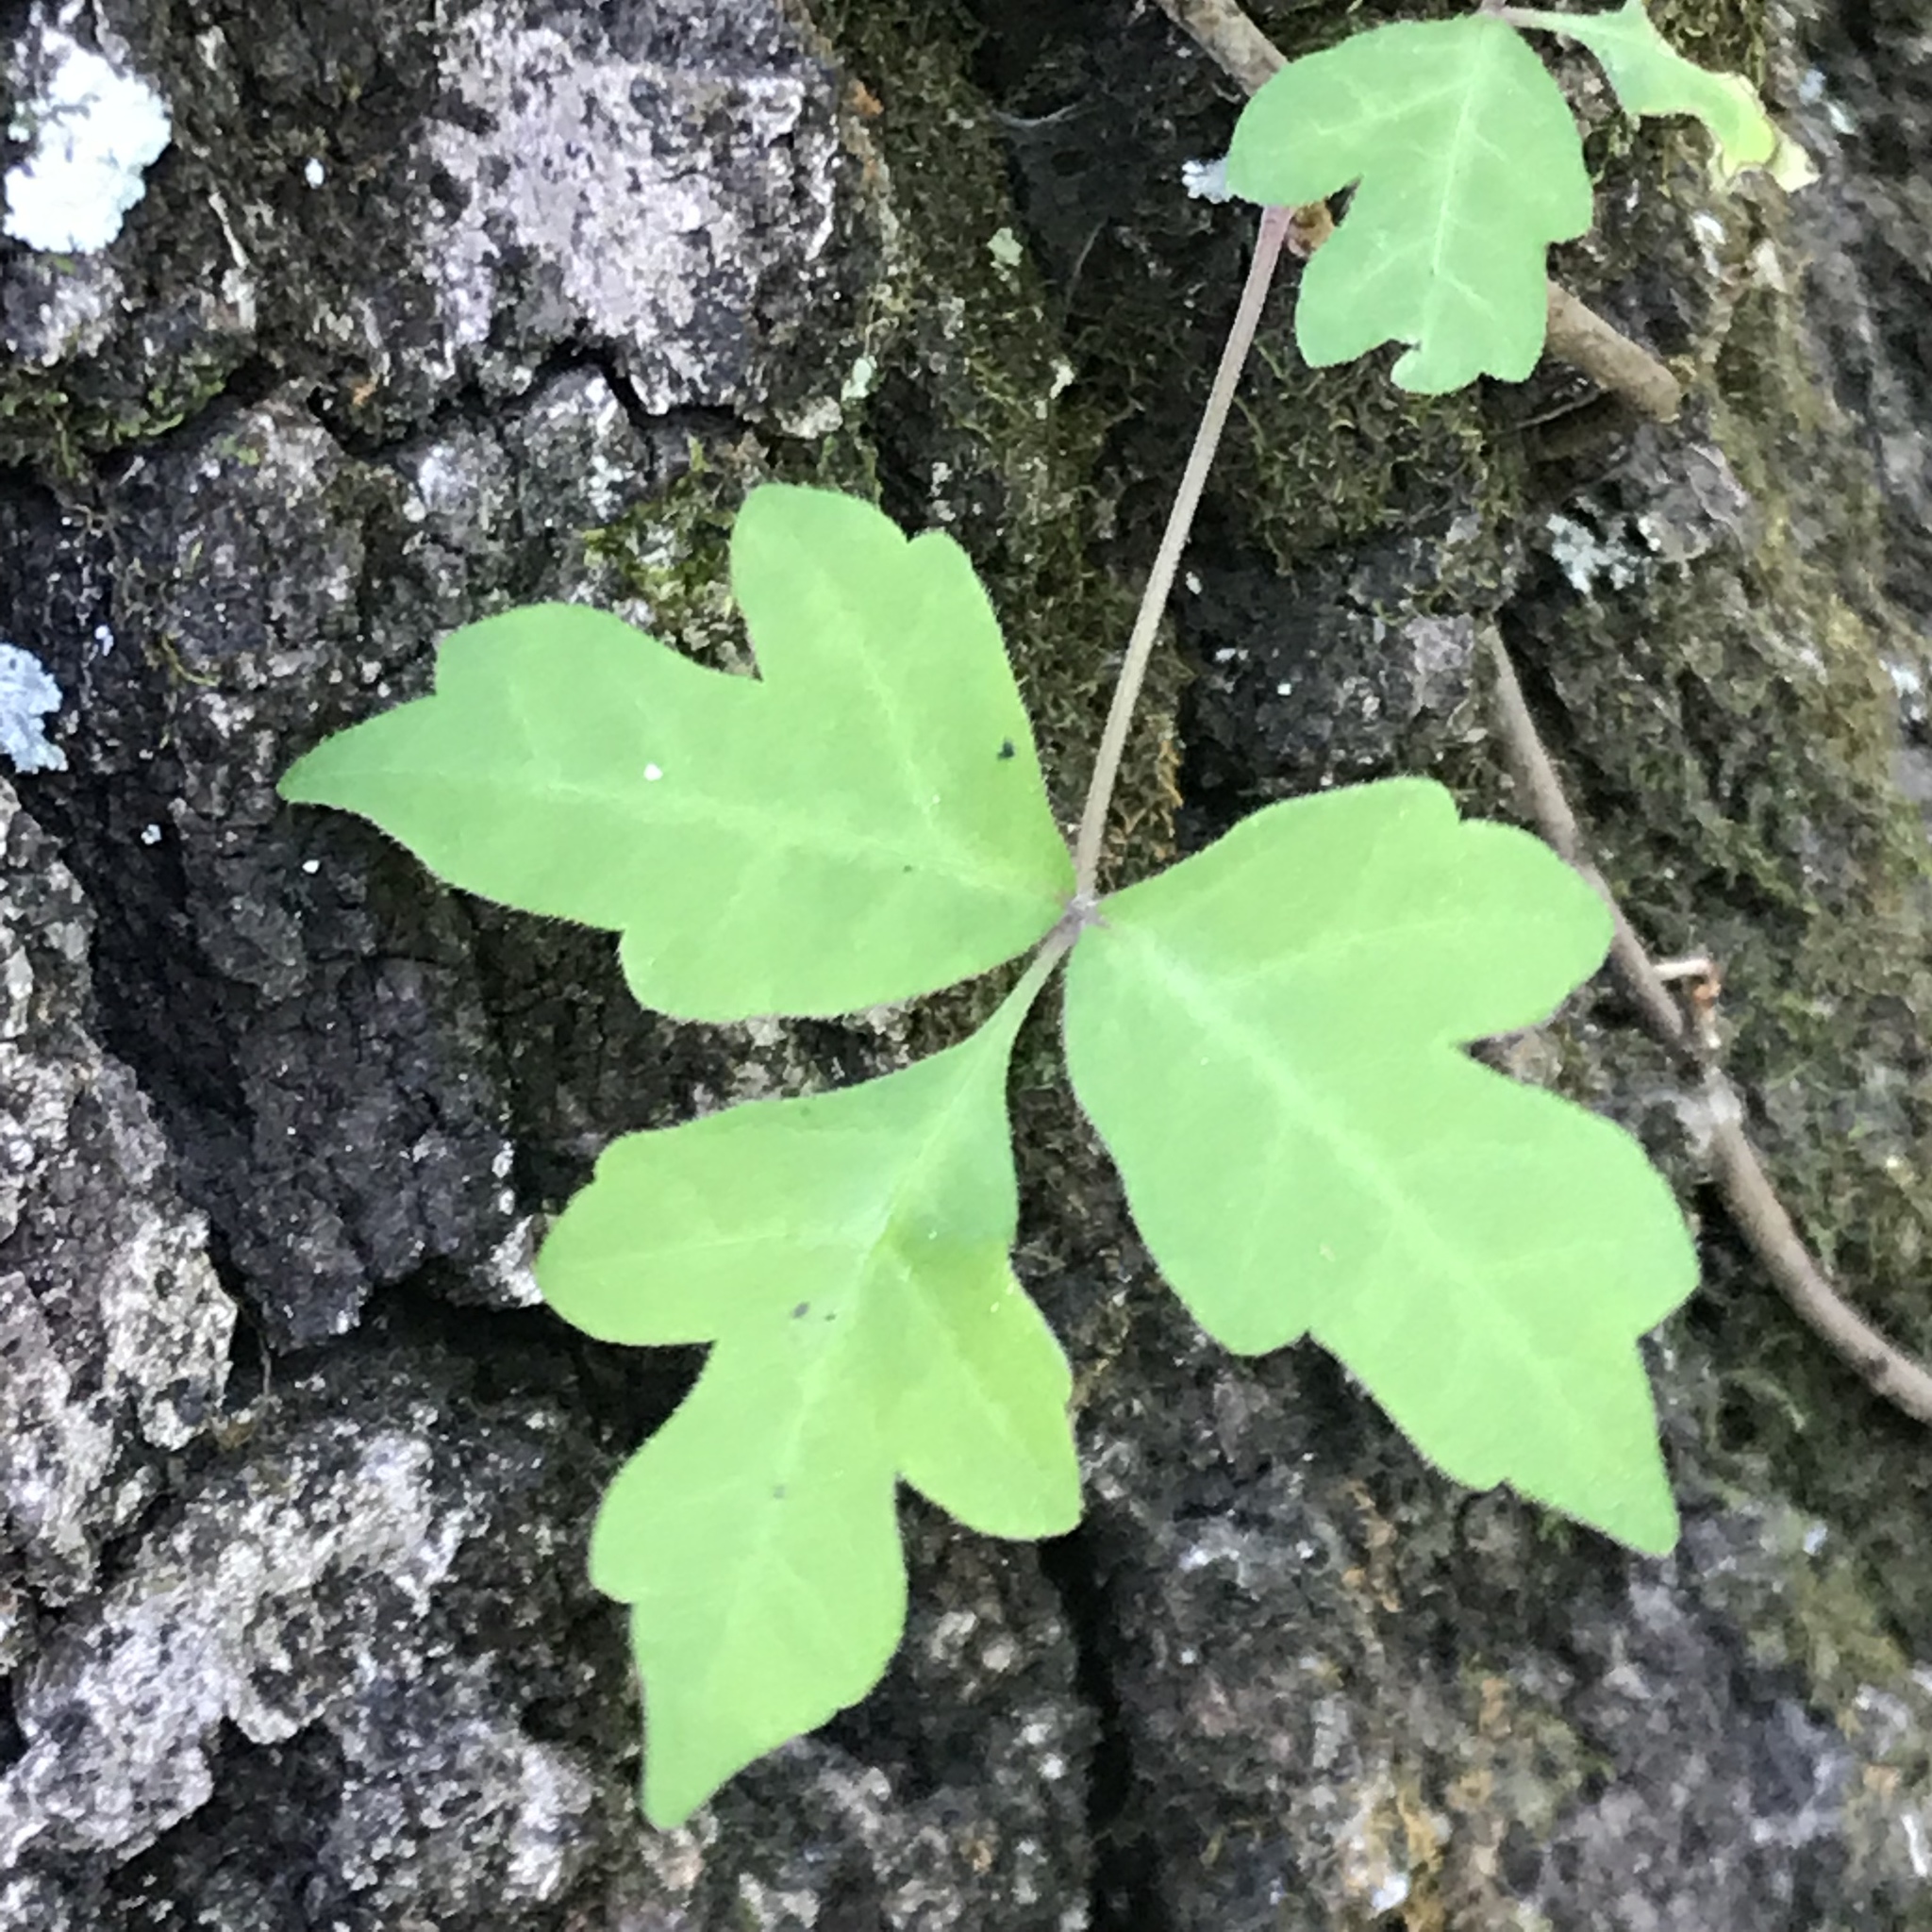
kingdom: Plantae
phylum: Tracheophyta
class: Magnoliopsida
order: Sapindales
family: Anacardiaceae
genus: Toxicodendron
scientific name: Toxicodendron radicans
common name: Poison ivy
